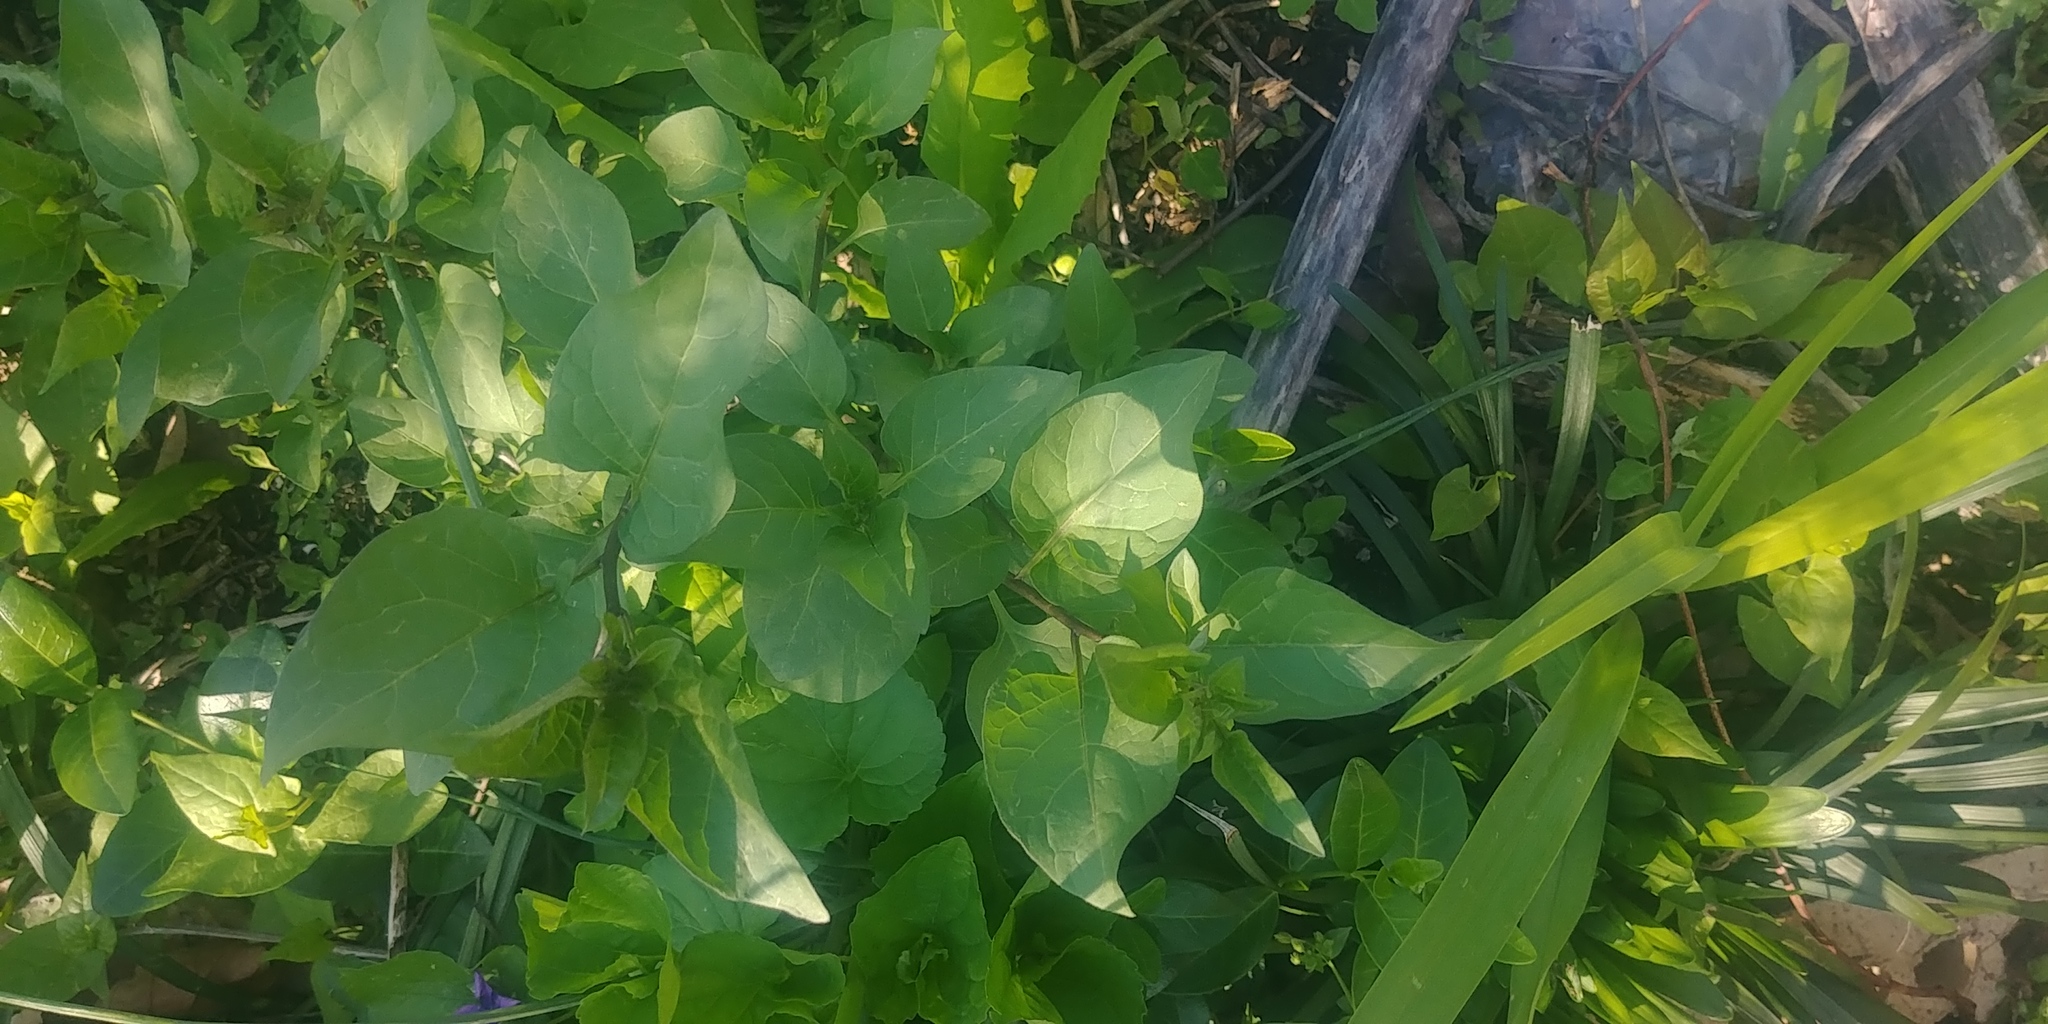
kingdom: Plantae
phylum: Tracheophyta
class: Magnoliopsida
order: Solanales
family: Solanaceae
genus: Solanum
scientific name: Solanum dulcamara
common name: Climbing nightshade
